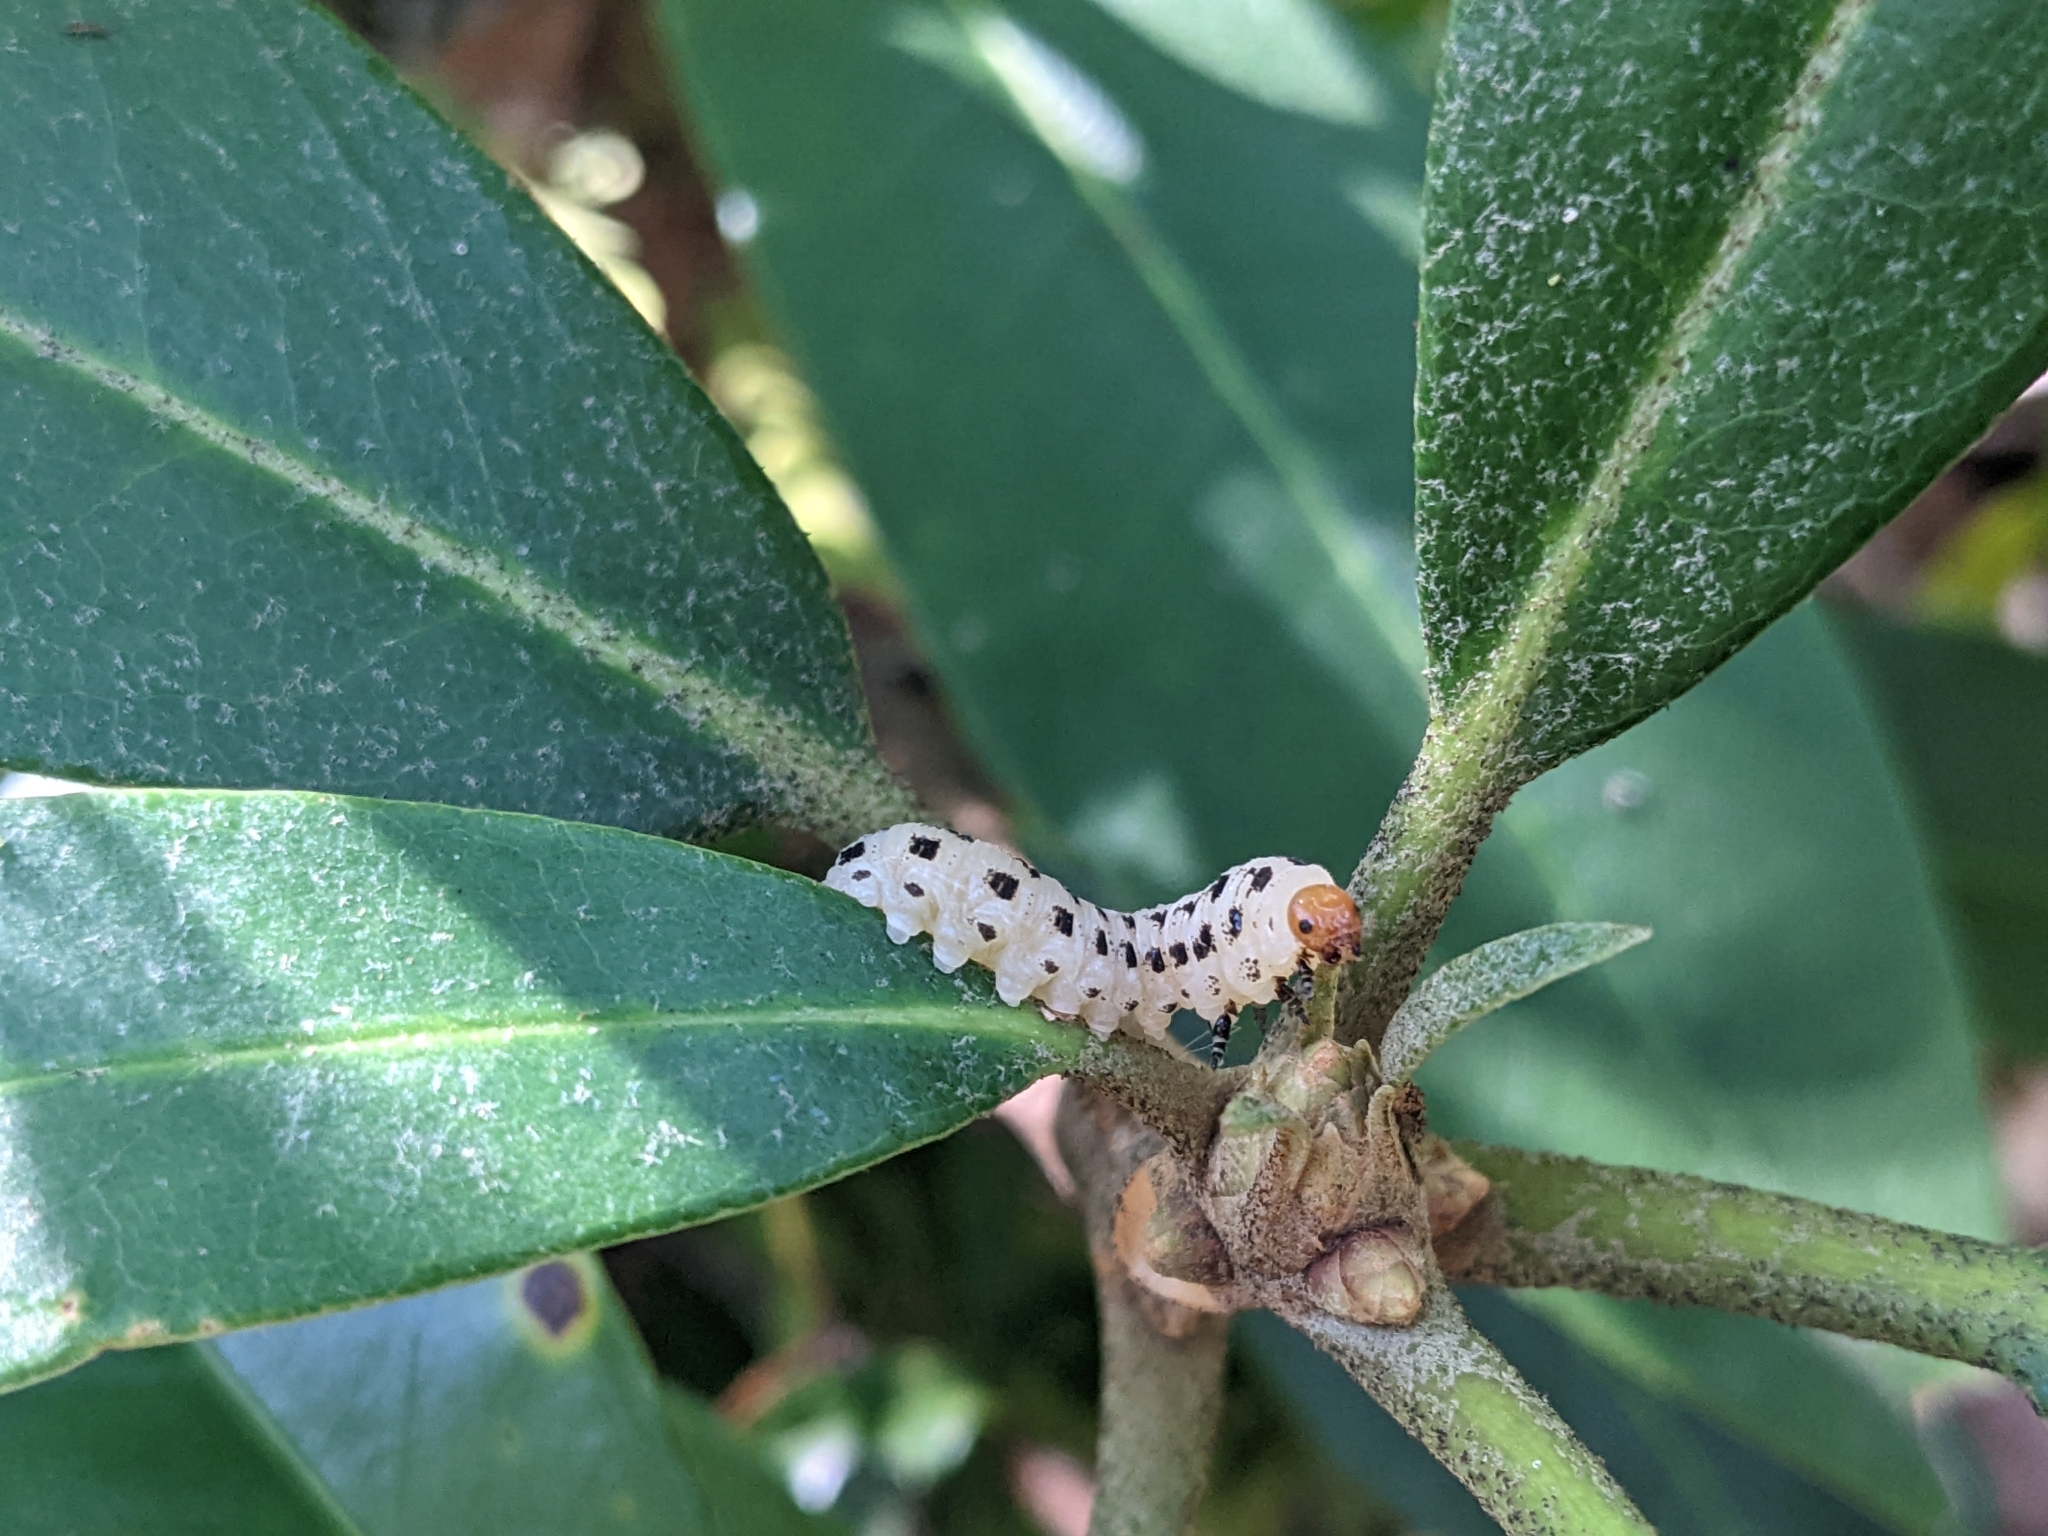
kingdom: Animalia
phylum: Arthropoda
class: Insecta
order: Hymenoptera
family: Diprionidae
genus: Neodiprion
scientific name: Neodiprion lecontei
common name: Redheaded pine sawfly
